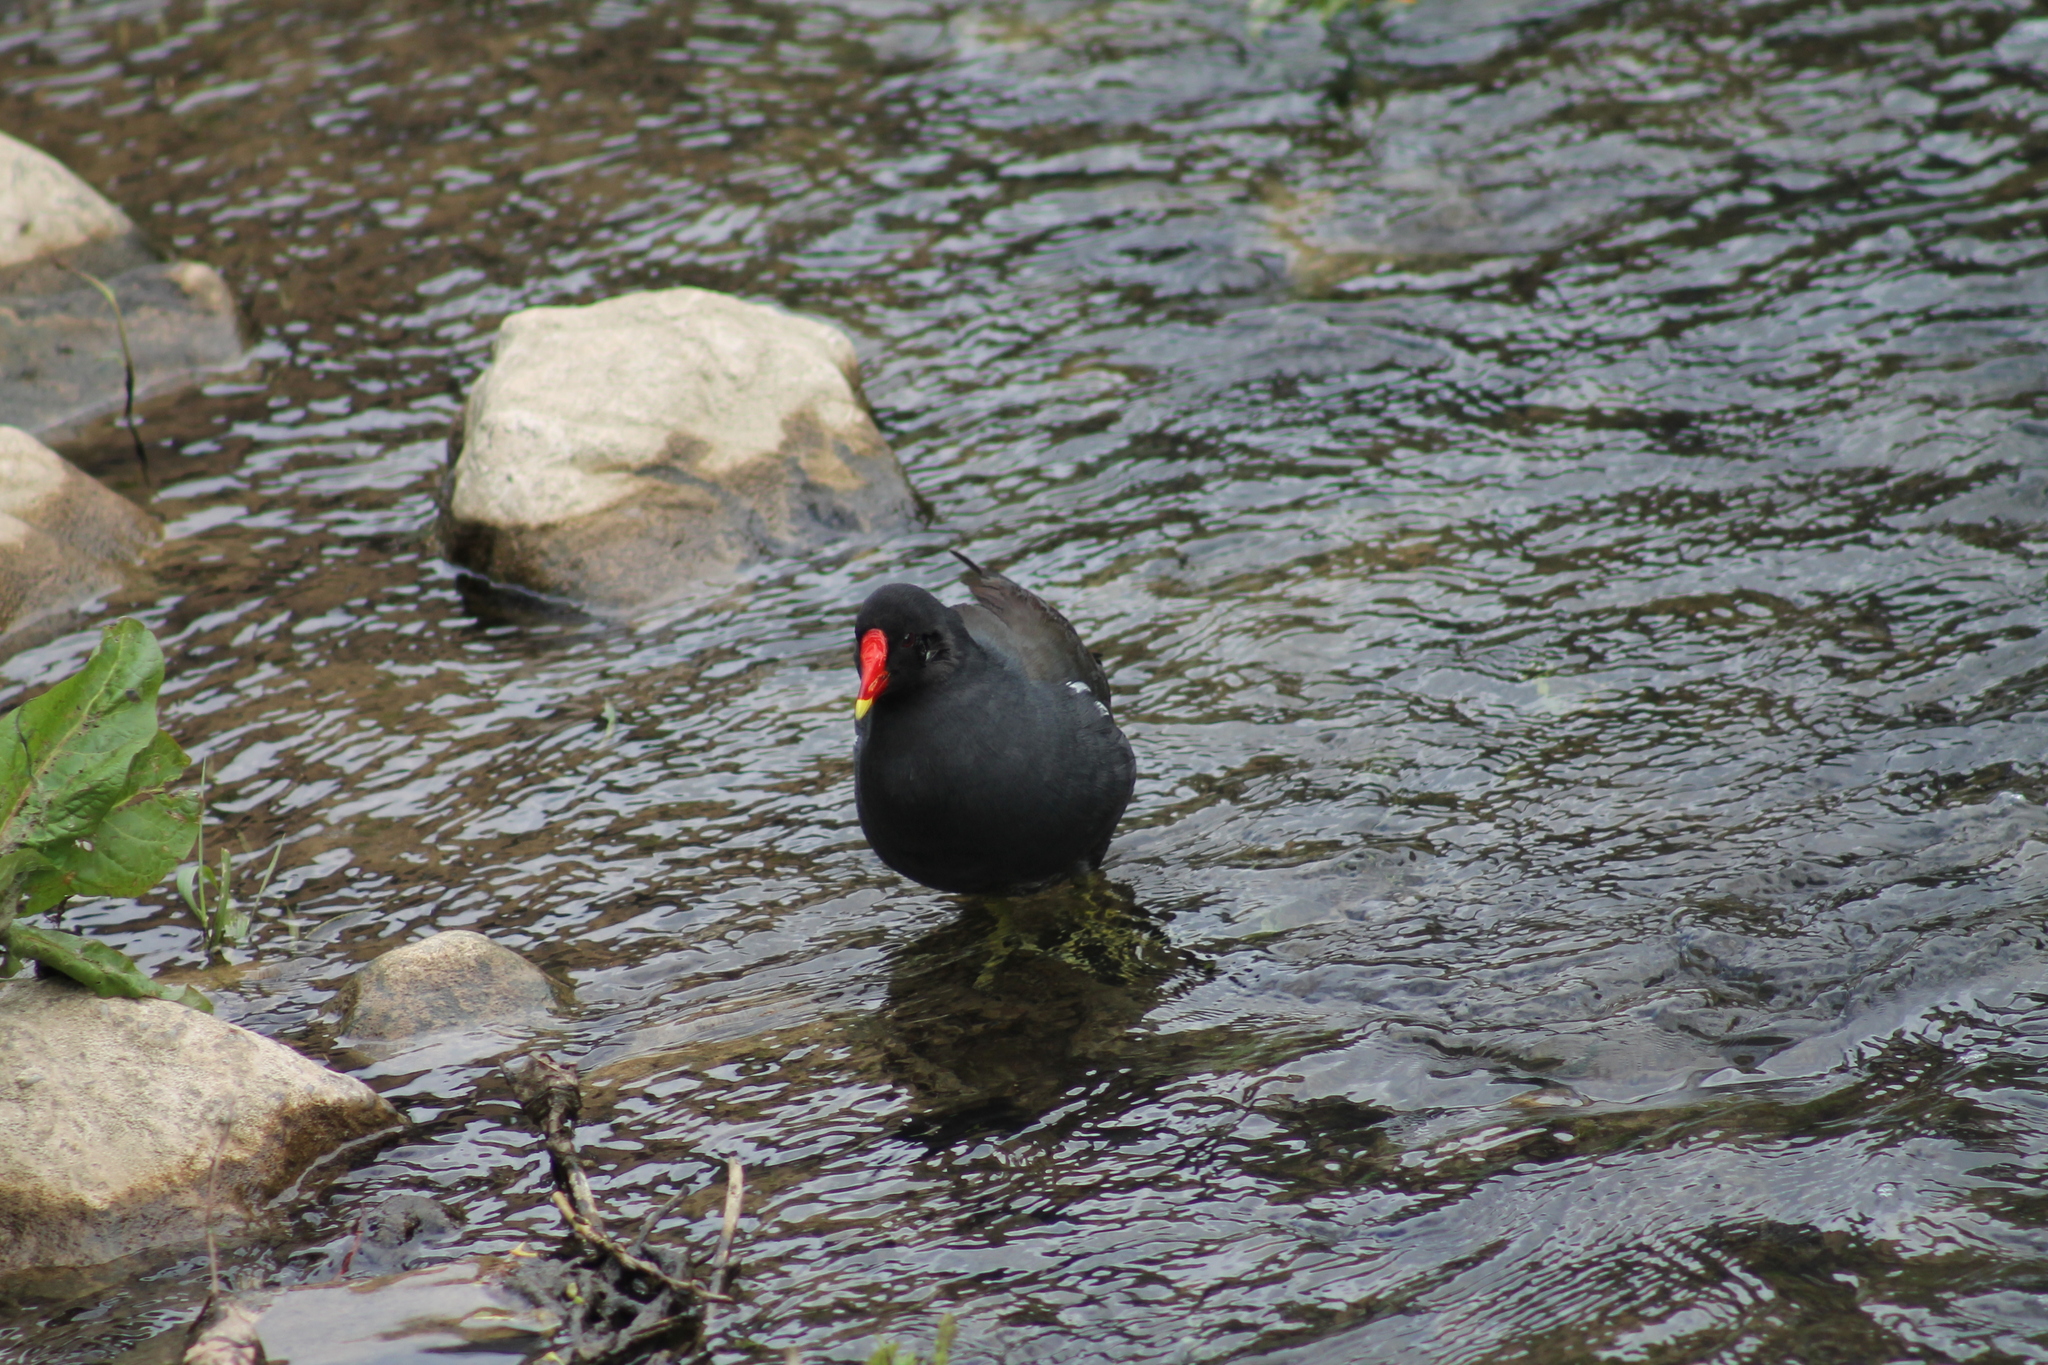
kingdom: Animalia
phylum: Chordata
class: Aves
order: Gruiformes
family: Rallidae
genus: Gallinula
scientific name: Gallinula chloropus
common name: Common moorhen
